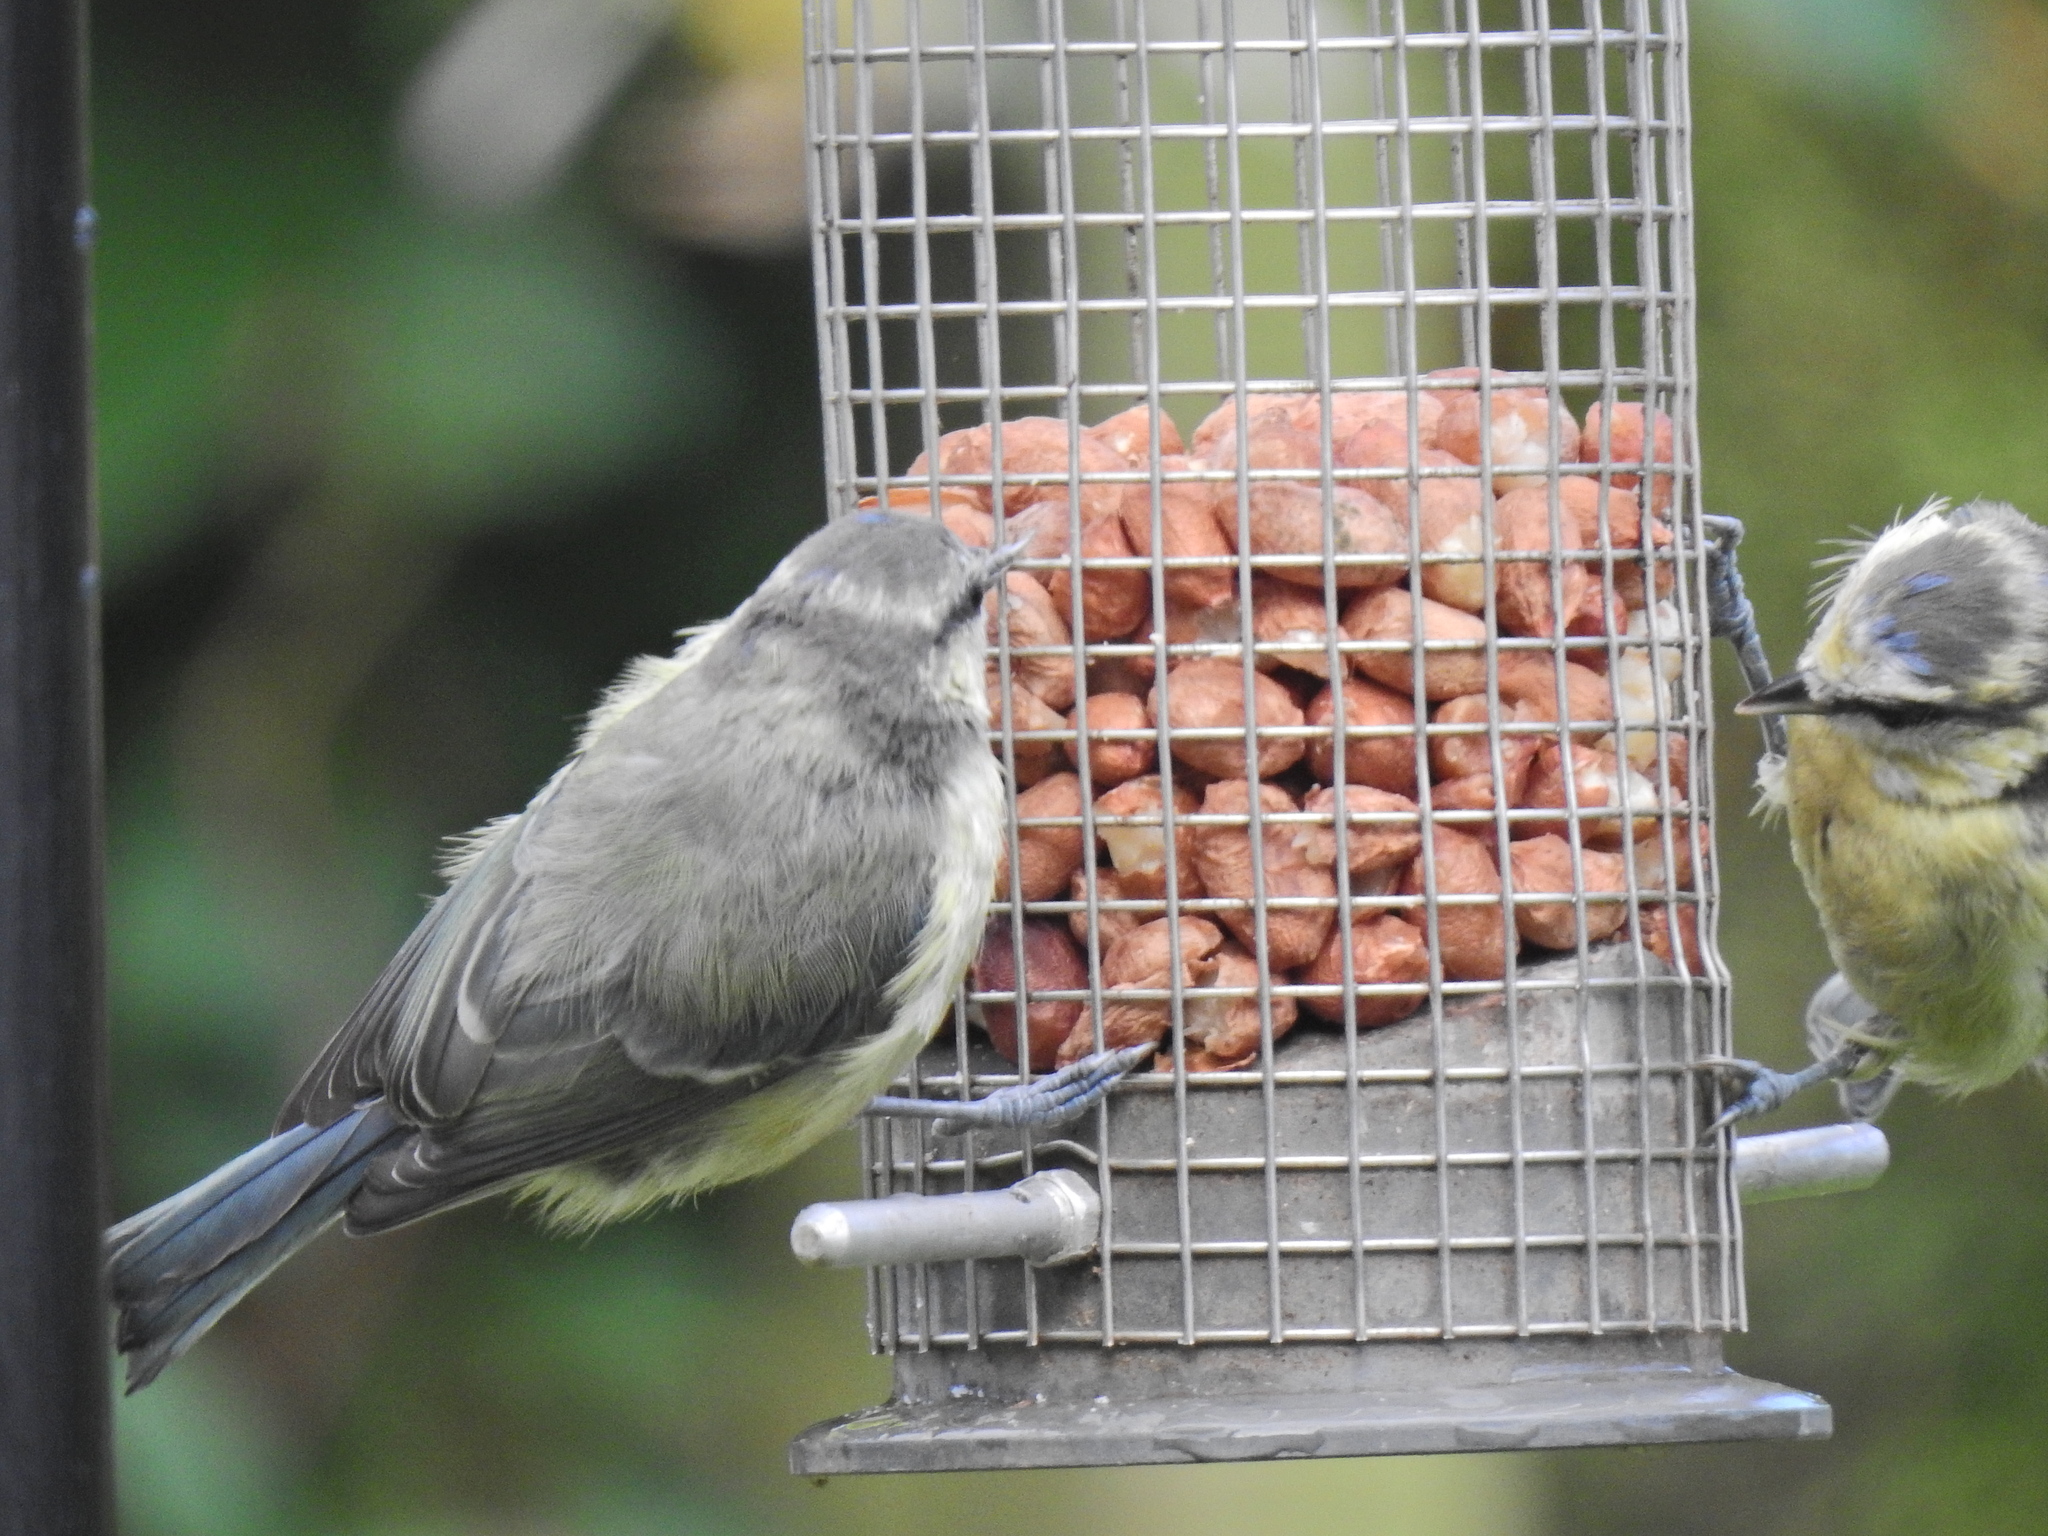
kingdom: Animalia
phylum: Chordata
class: Aves
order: Passeriformes
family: Paridae
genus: Cyanistes
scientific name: Cyanistes caeruleus
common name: Eurasian blue tit
